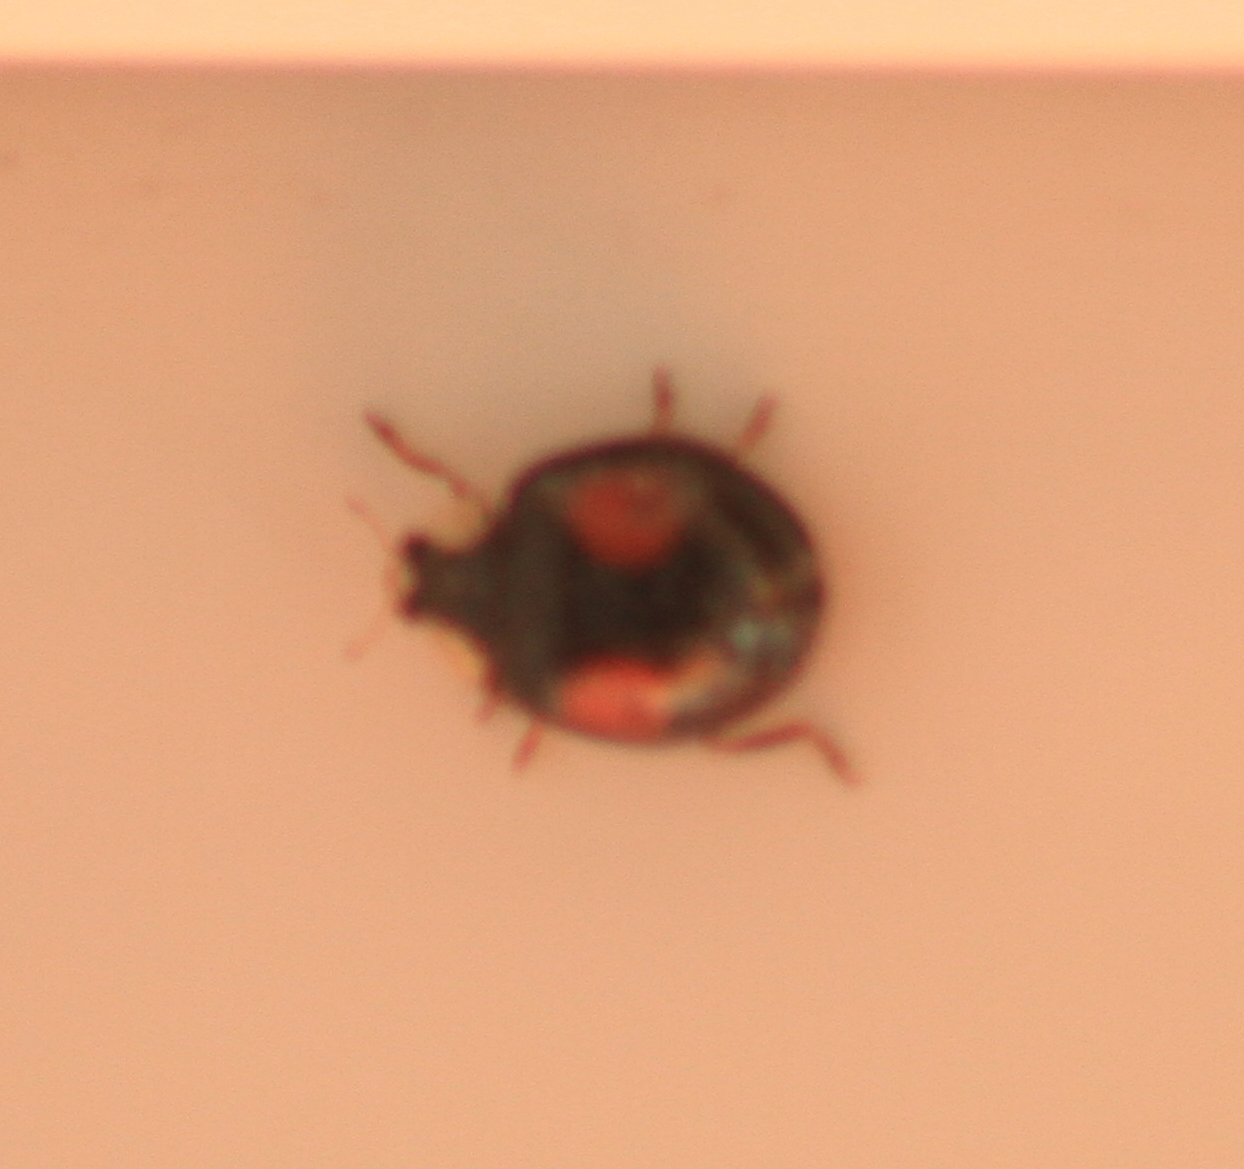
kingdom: Animalia
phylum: Arthropoda
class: Insecta
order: Coleoptera
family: Coccinellidae
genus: Harmonia
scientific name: Harmonia axyridis
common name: Harlequin ladybird
